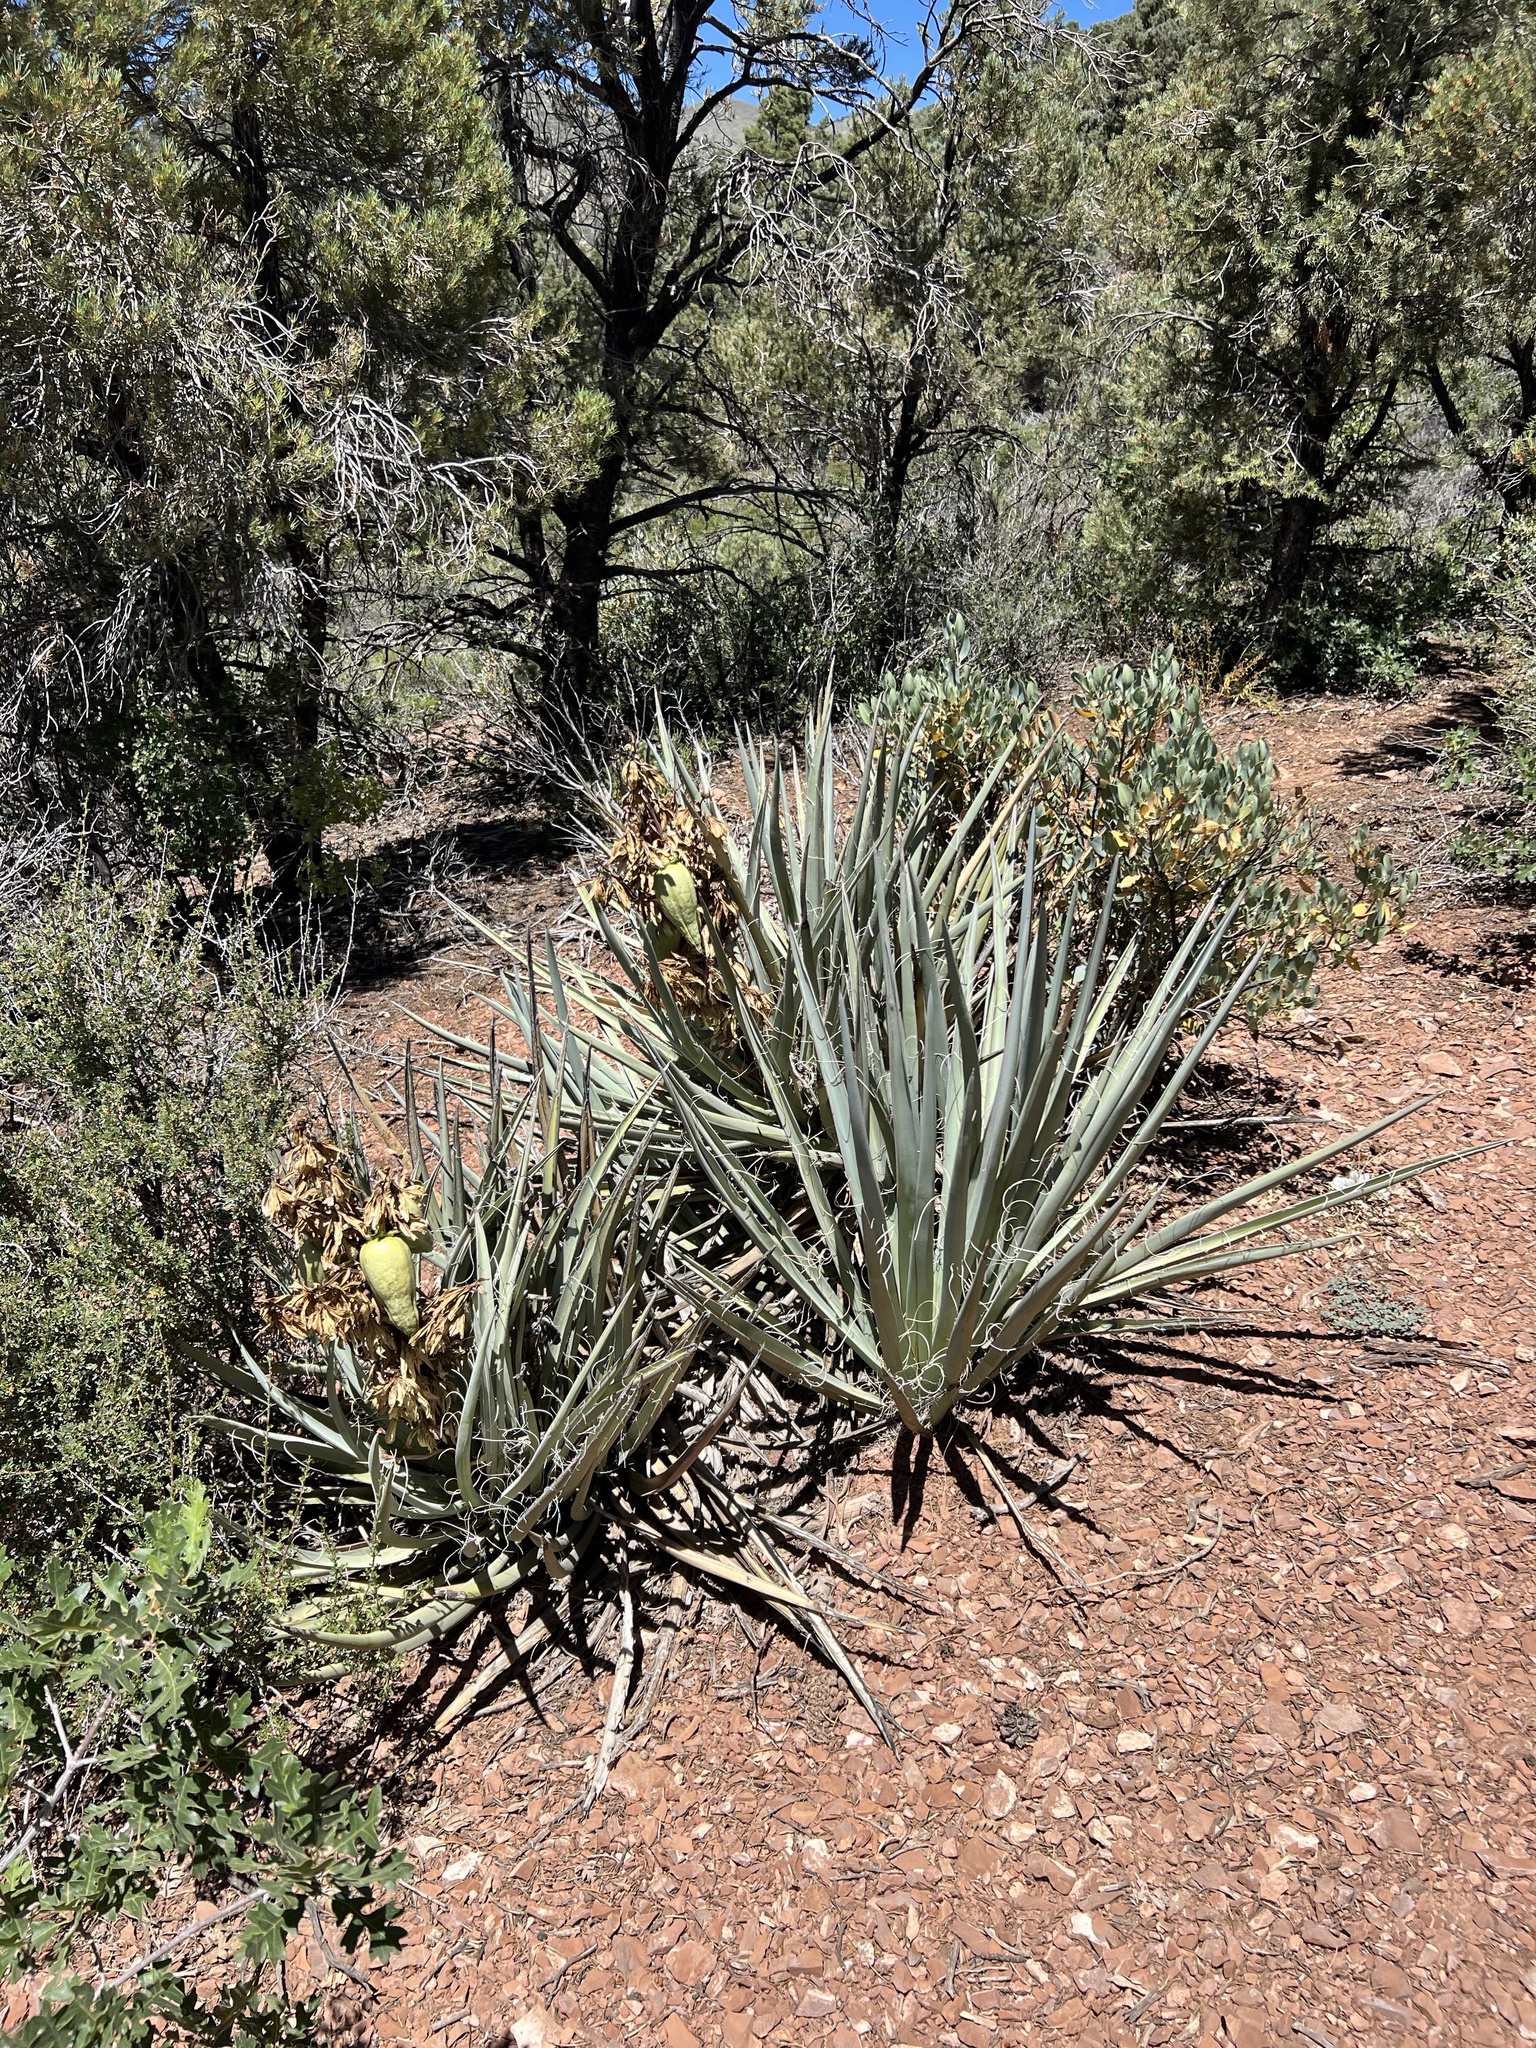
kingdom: Plantae
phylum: Tracheophyta
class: Liliopsida
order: Asparagales
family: Asparagaceae
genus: Yucca
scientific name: Yucca baccata
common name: Banana yucca
